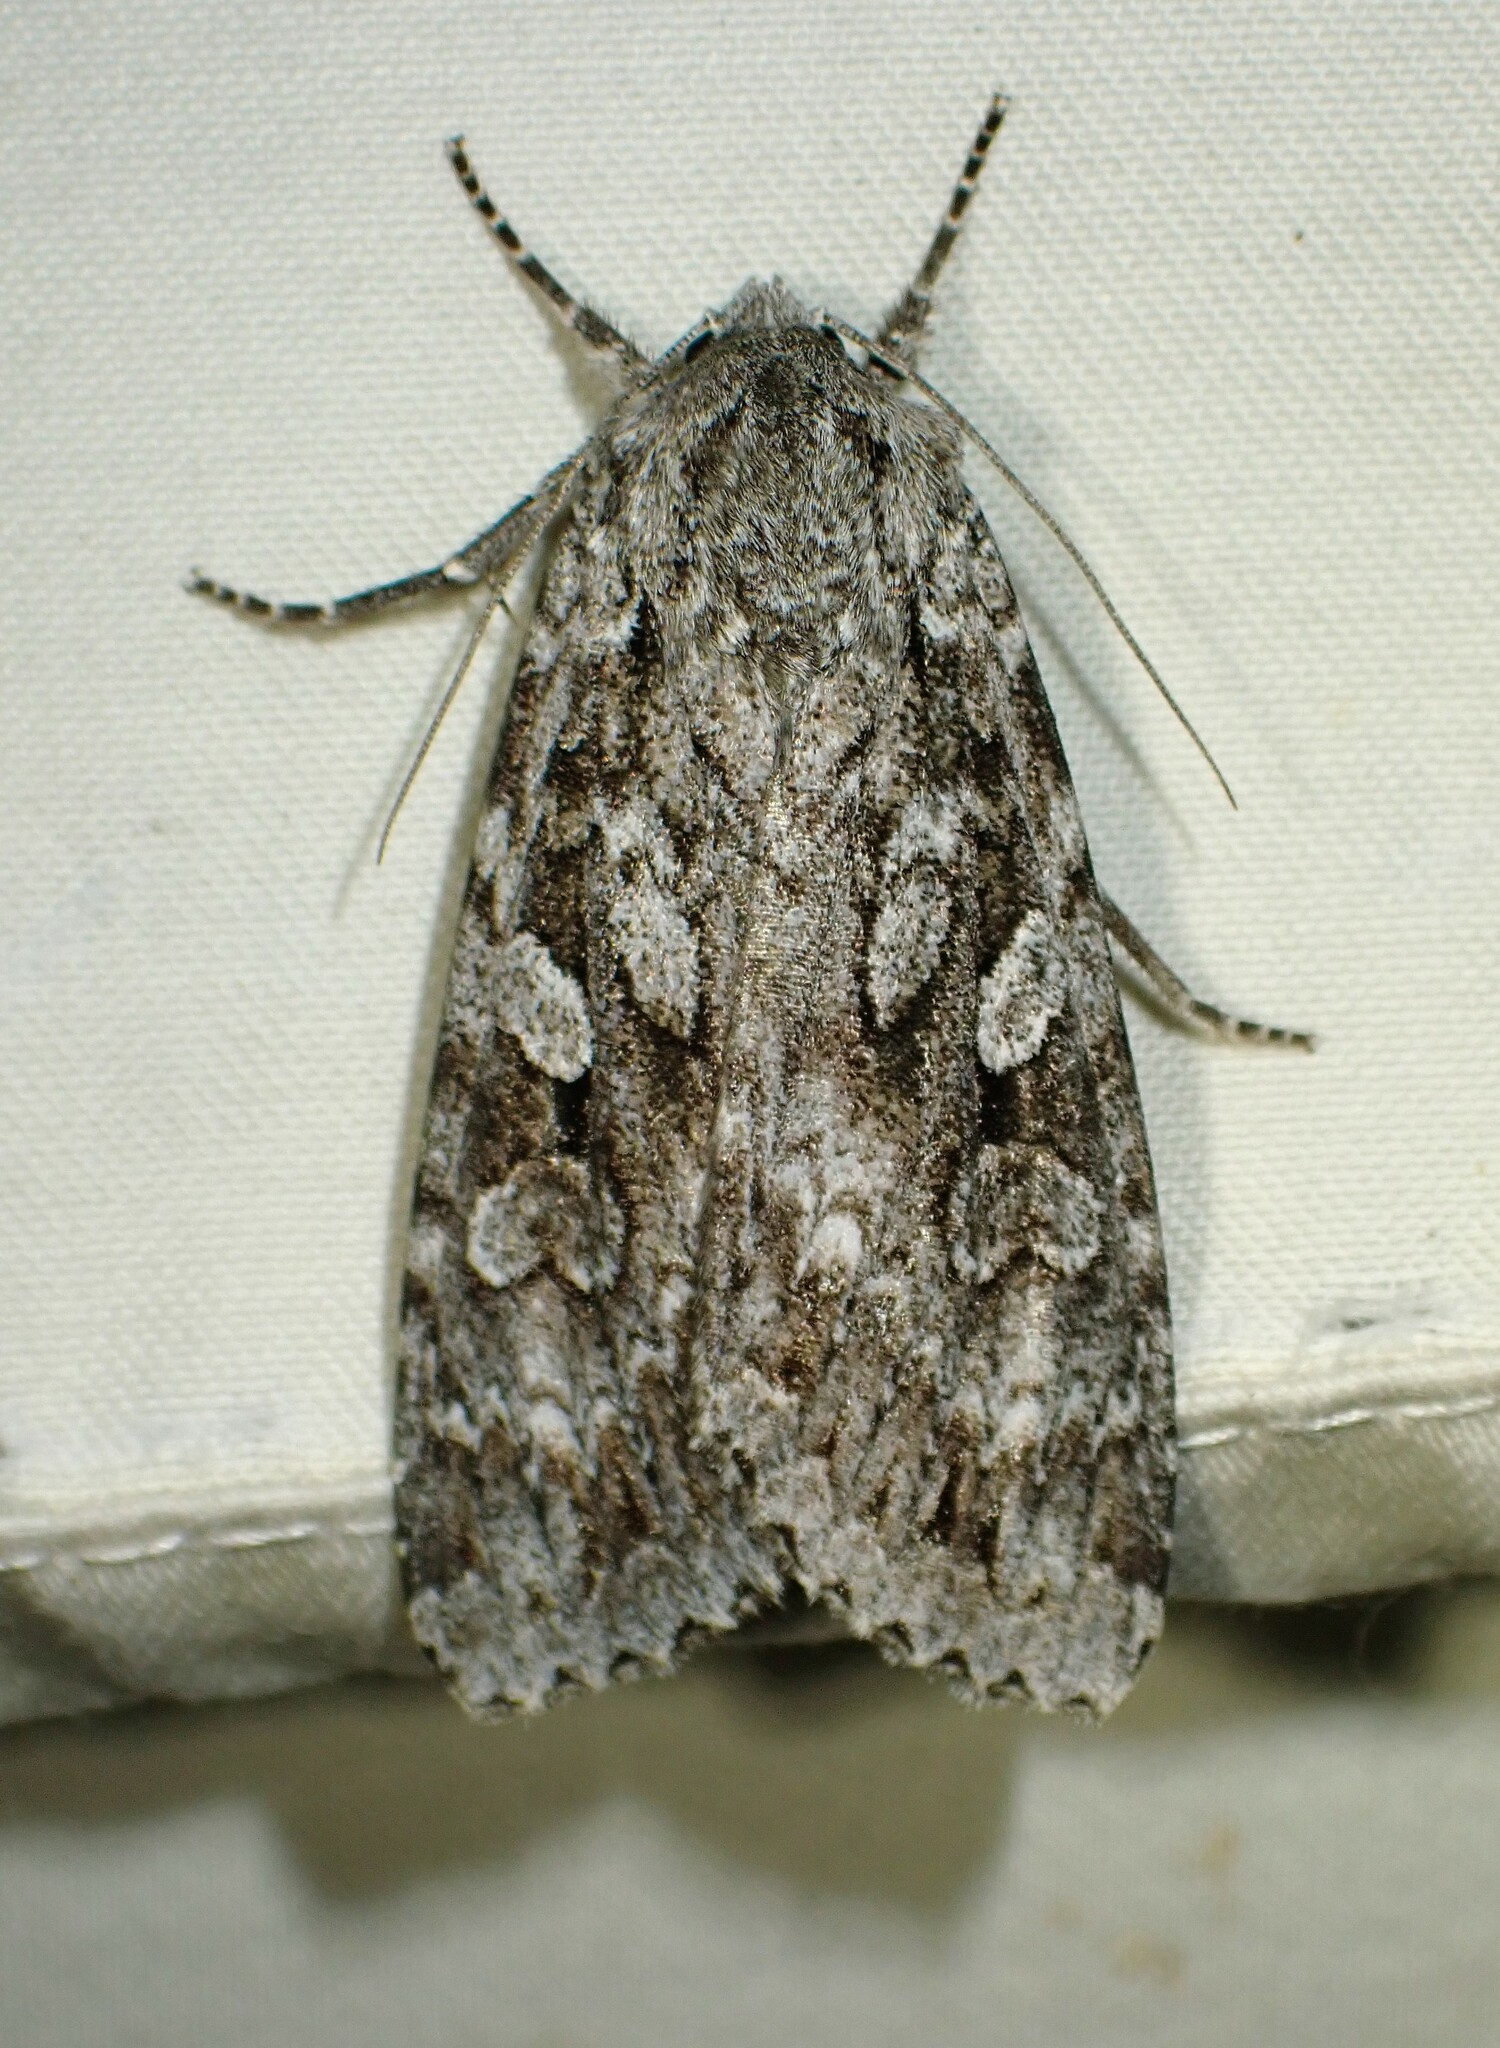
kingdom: Animalia
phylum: Arthropoda
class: Insecta
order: Lepidoptera
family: Noctuidae
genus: Eurois
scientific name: Eurois occulta
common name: Great brocade
